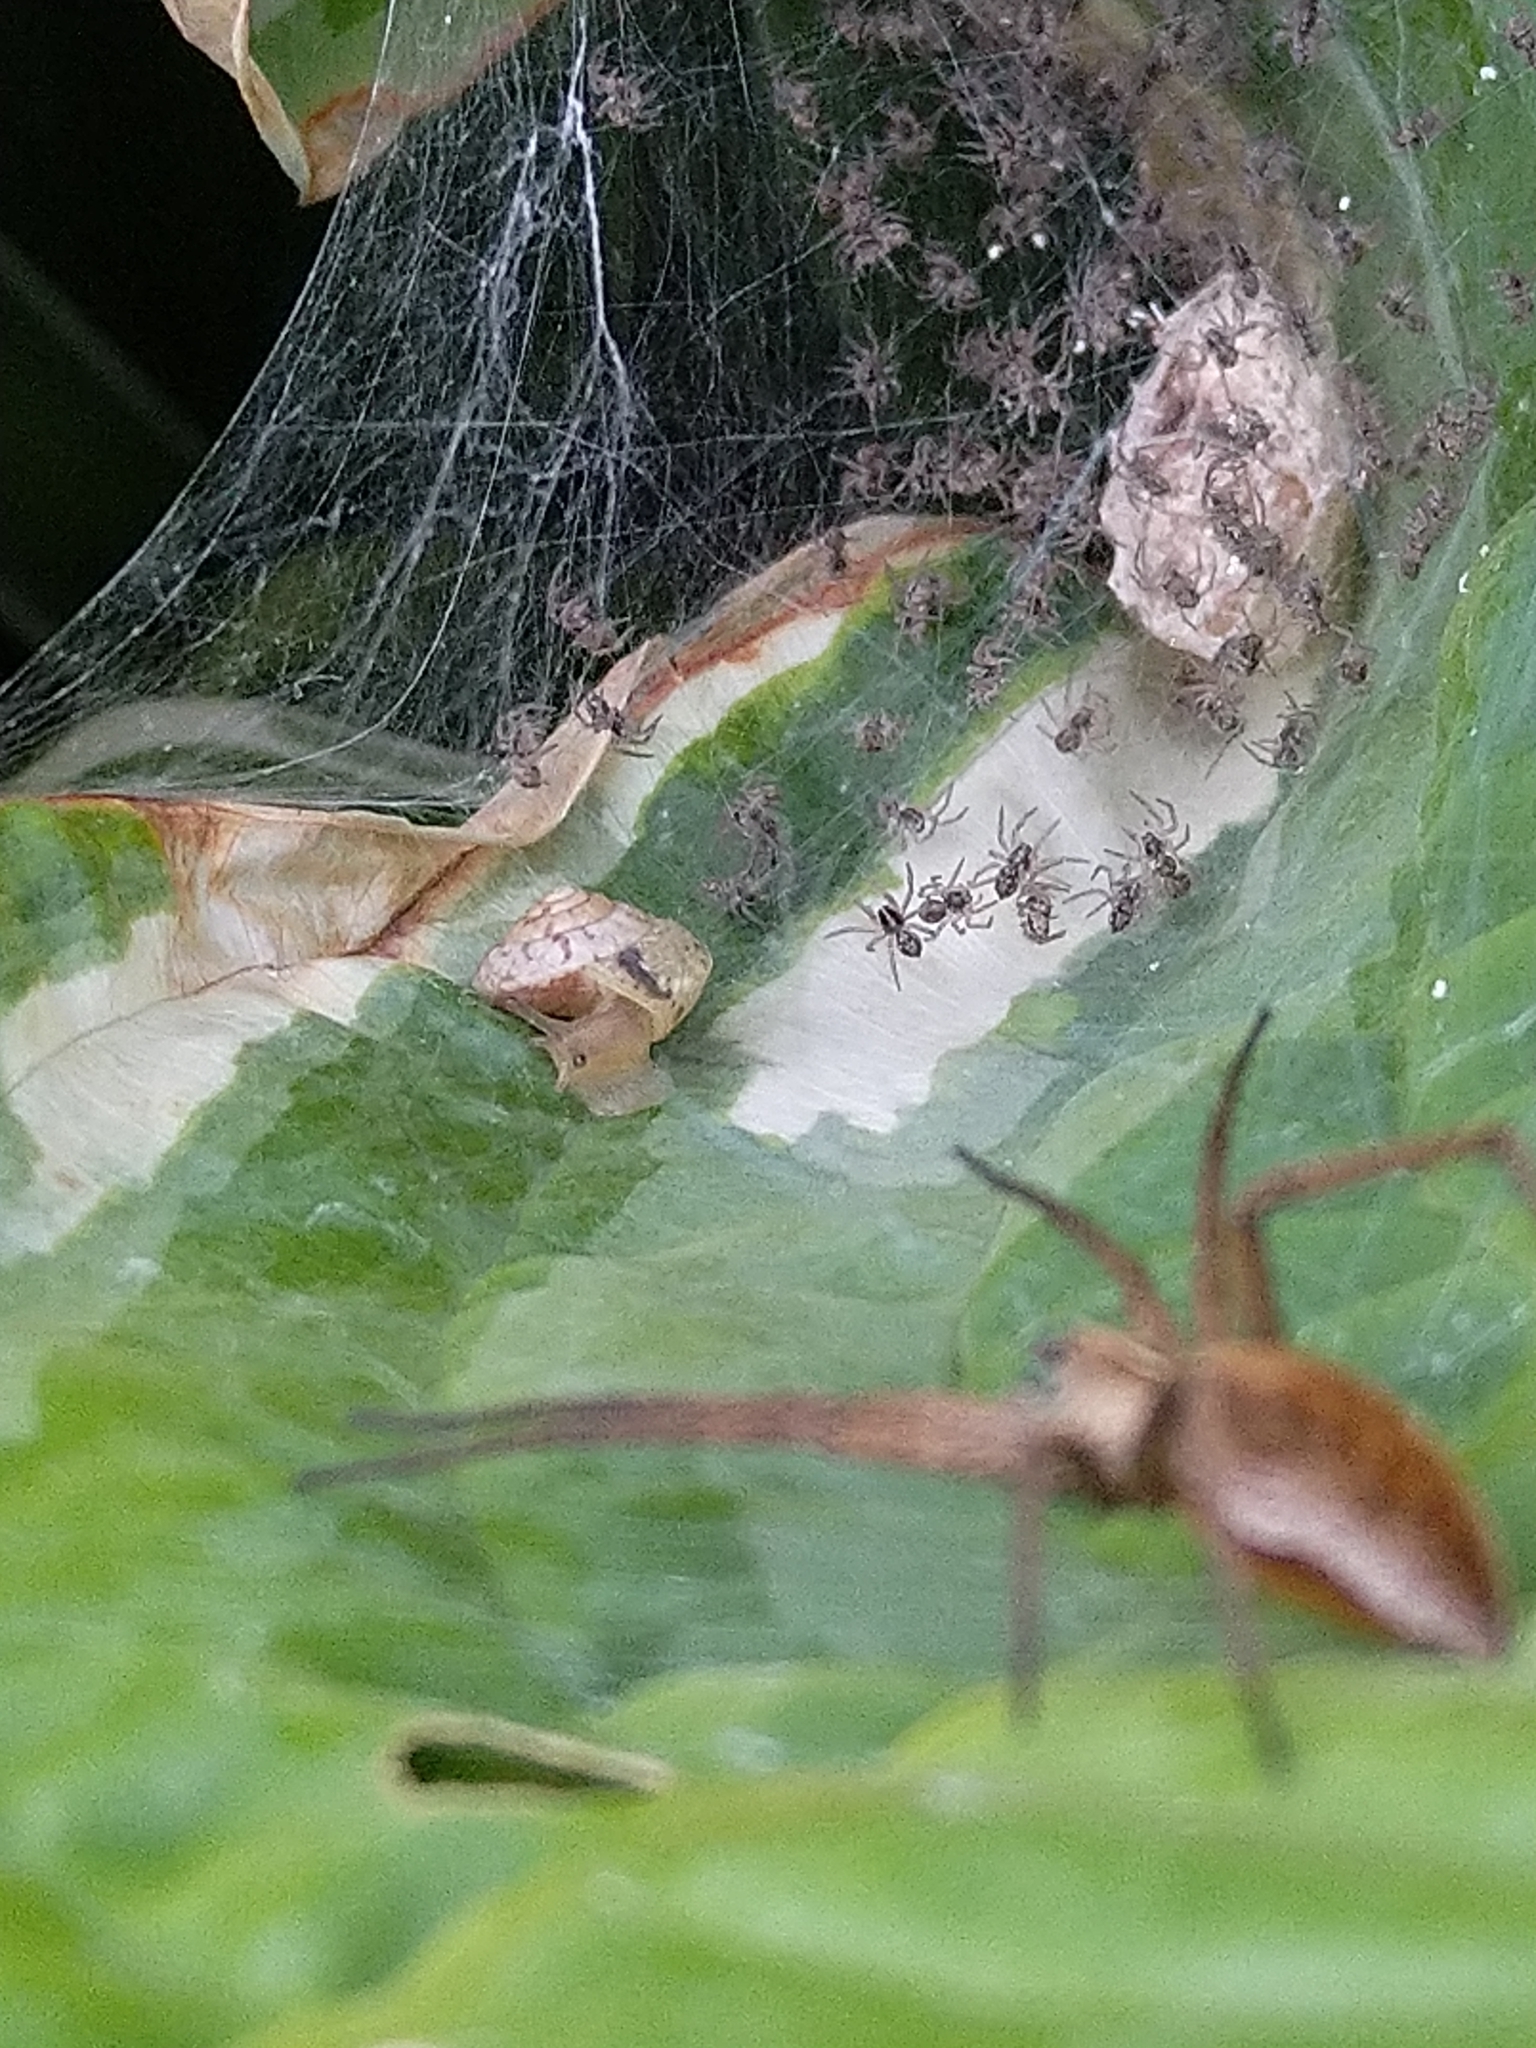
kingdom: Animalia
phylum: Arthropoda
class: Arachnida
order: Araneae
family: Pisauridae
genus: Pisaura
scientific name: Pisaura mirabilis
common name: Tent spider
